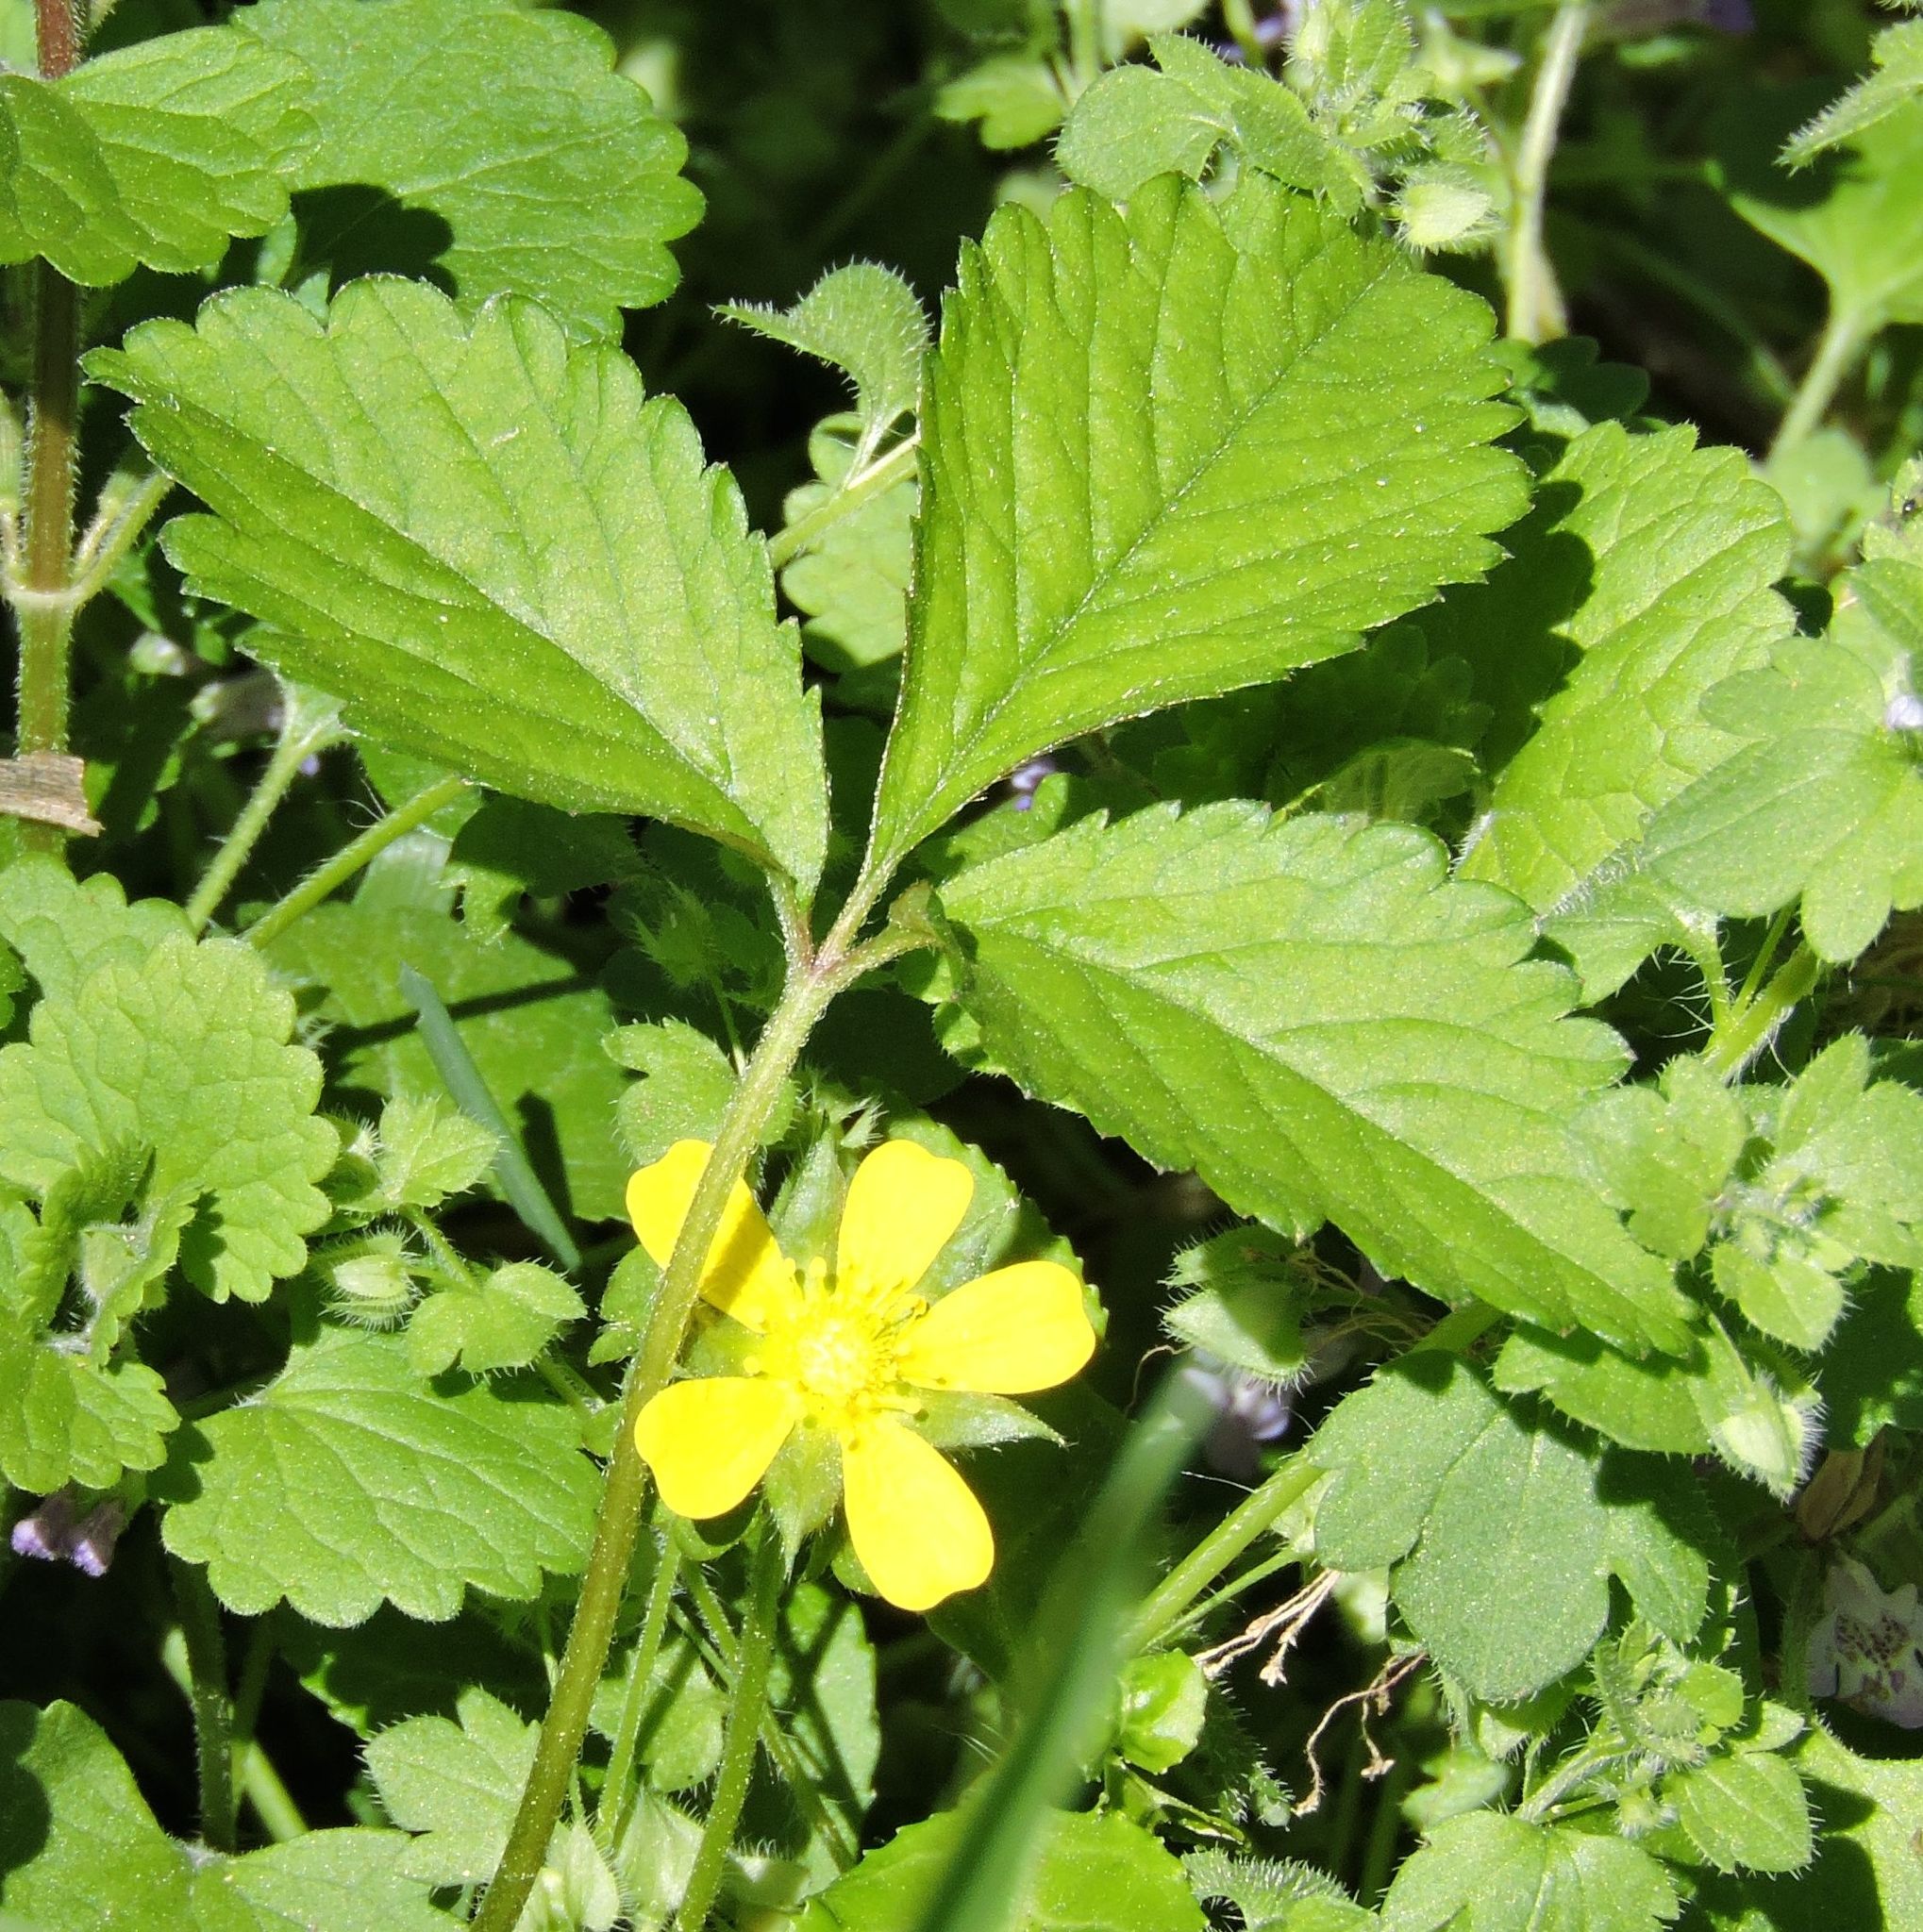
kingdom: Plantae
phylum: Tracheophyta
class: Magnoliopsida
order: Rosales
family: Rosaceae
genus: Potentilla
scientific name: Potentilla indica
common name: Yellow-flowered strawberry
